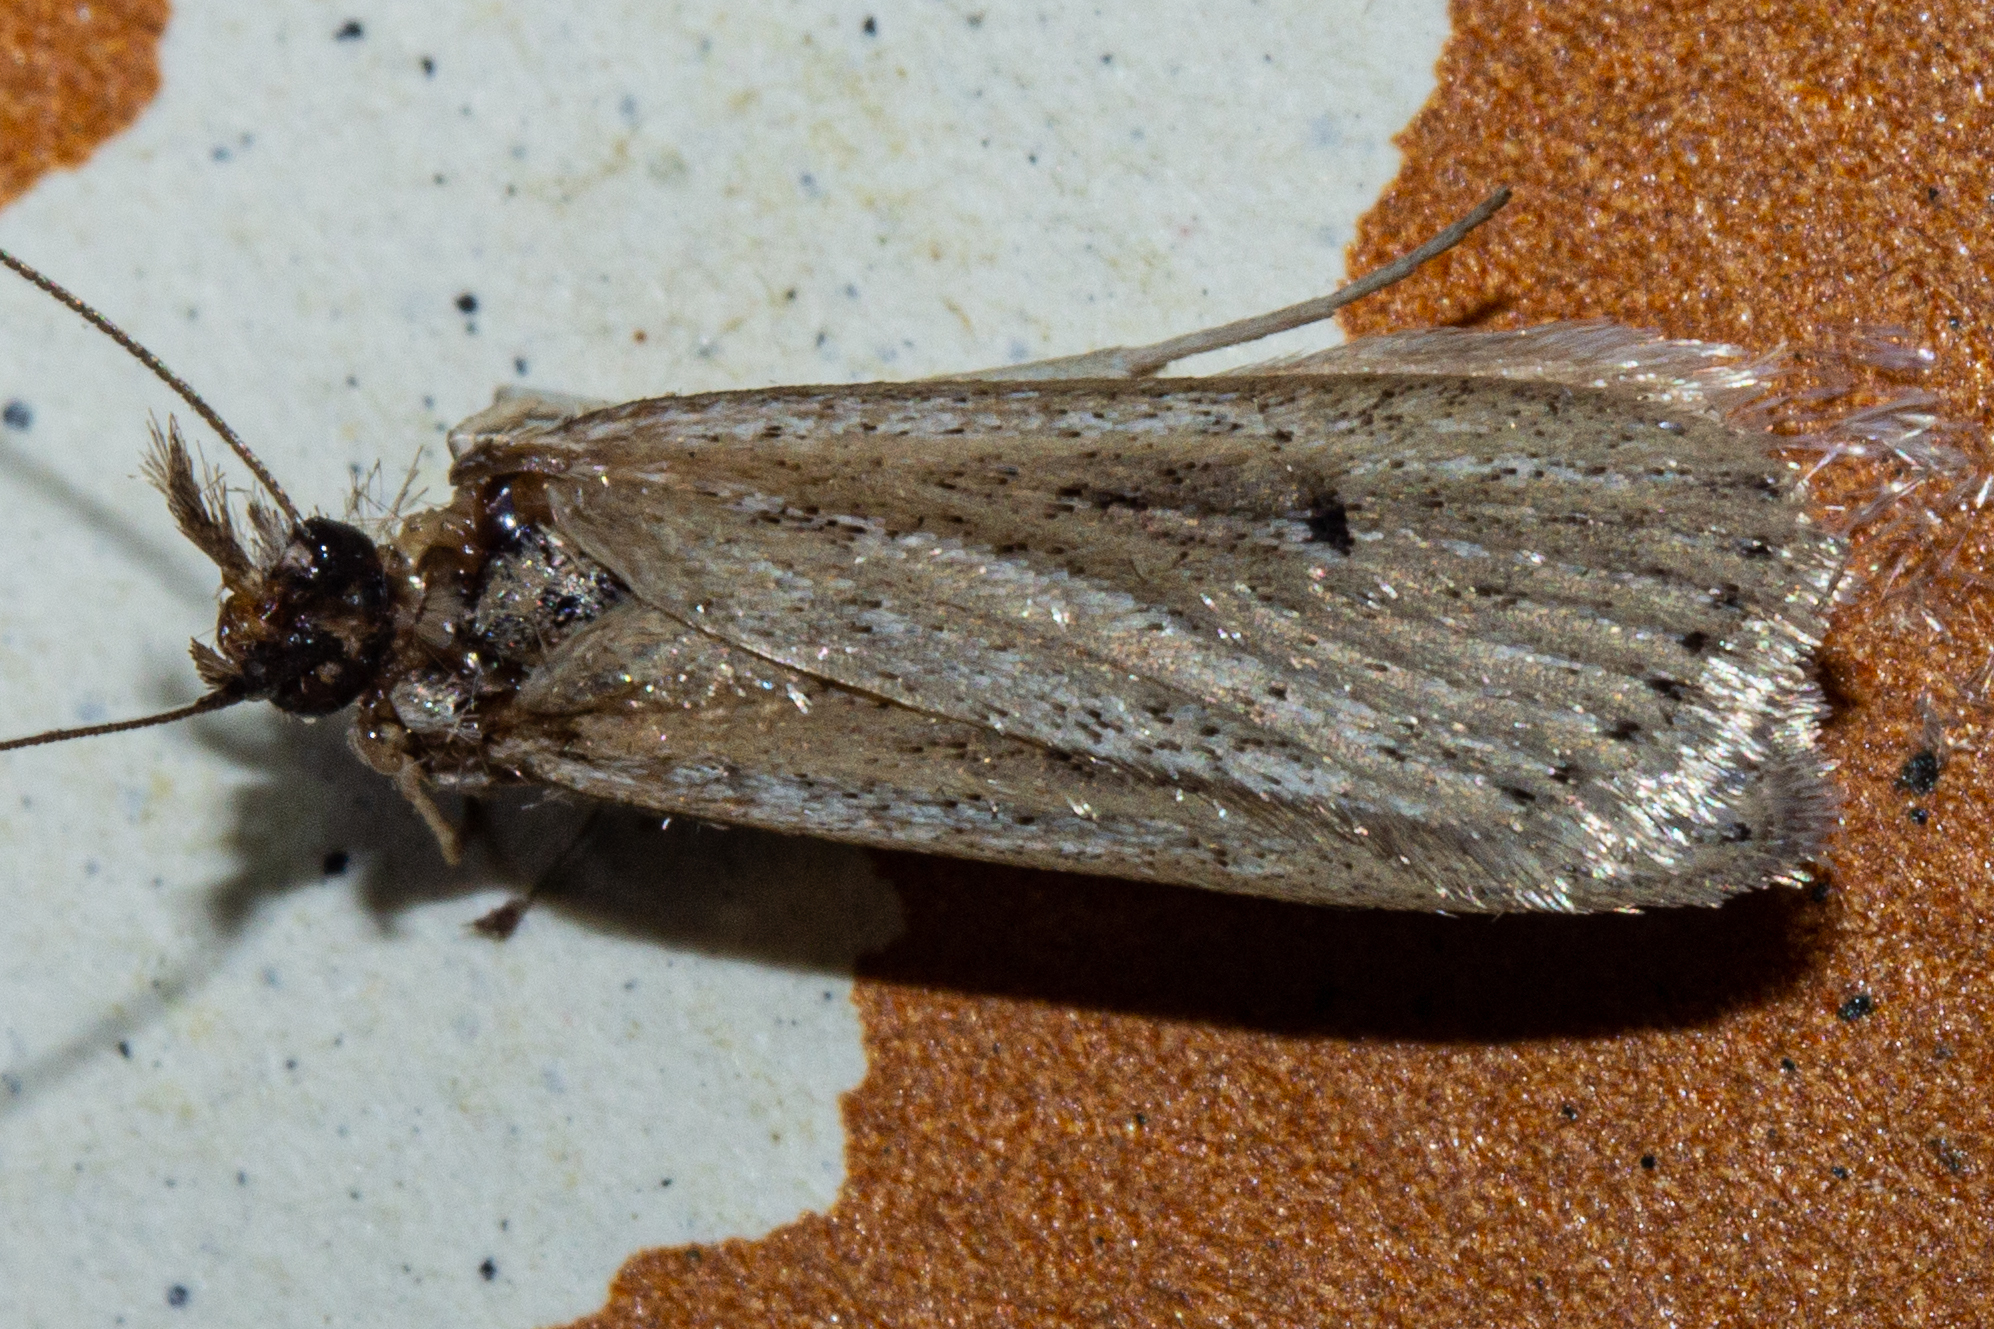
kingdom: Animalia
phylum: Arthropoda
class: Insecta
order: Lepidoptera
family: Crambidae
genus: Eudonia
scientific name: Eudonia sabulosella
